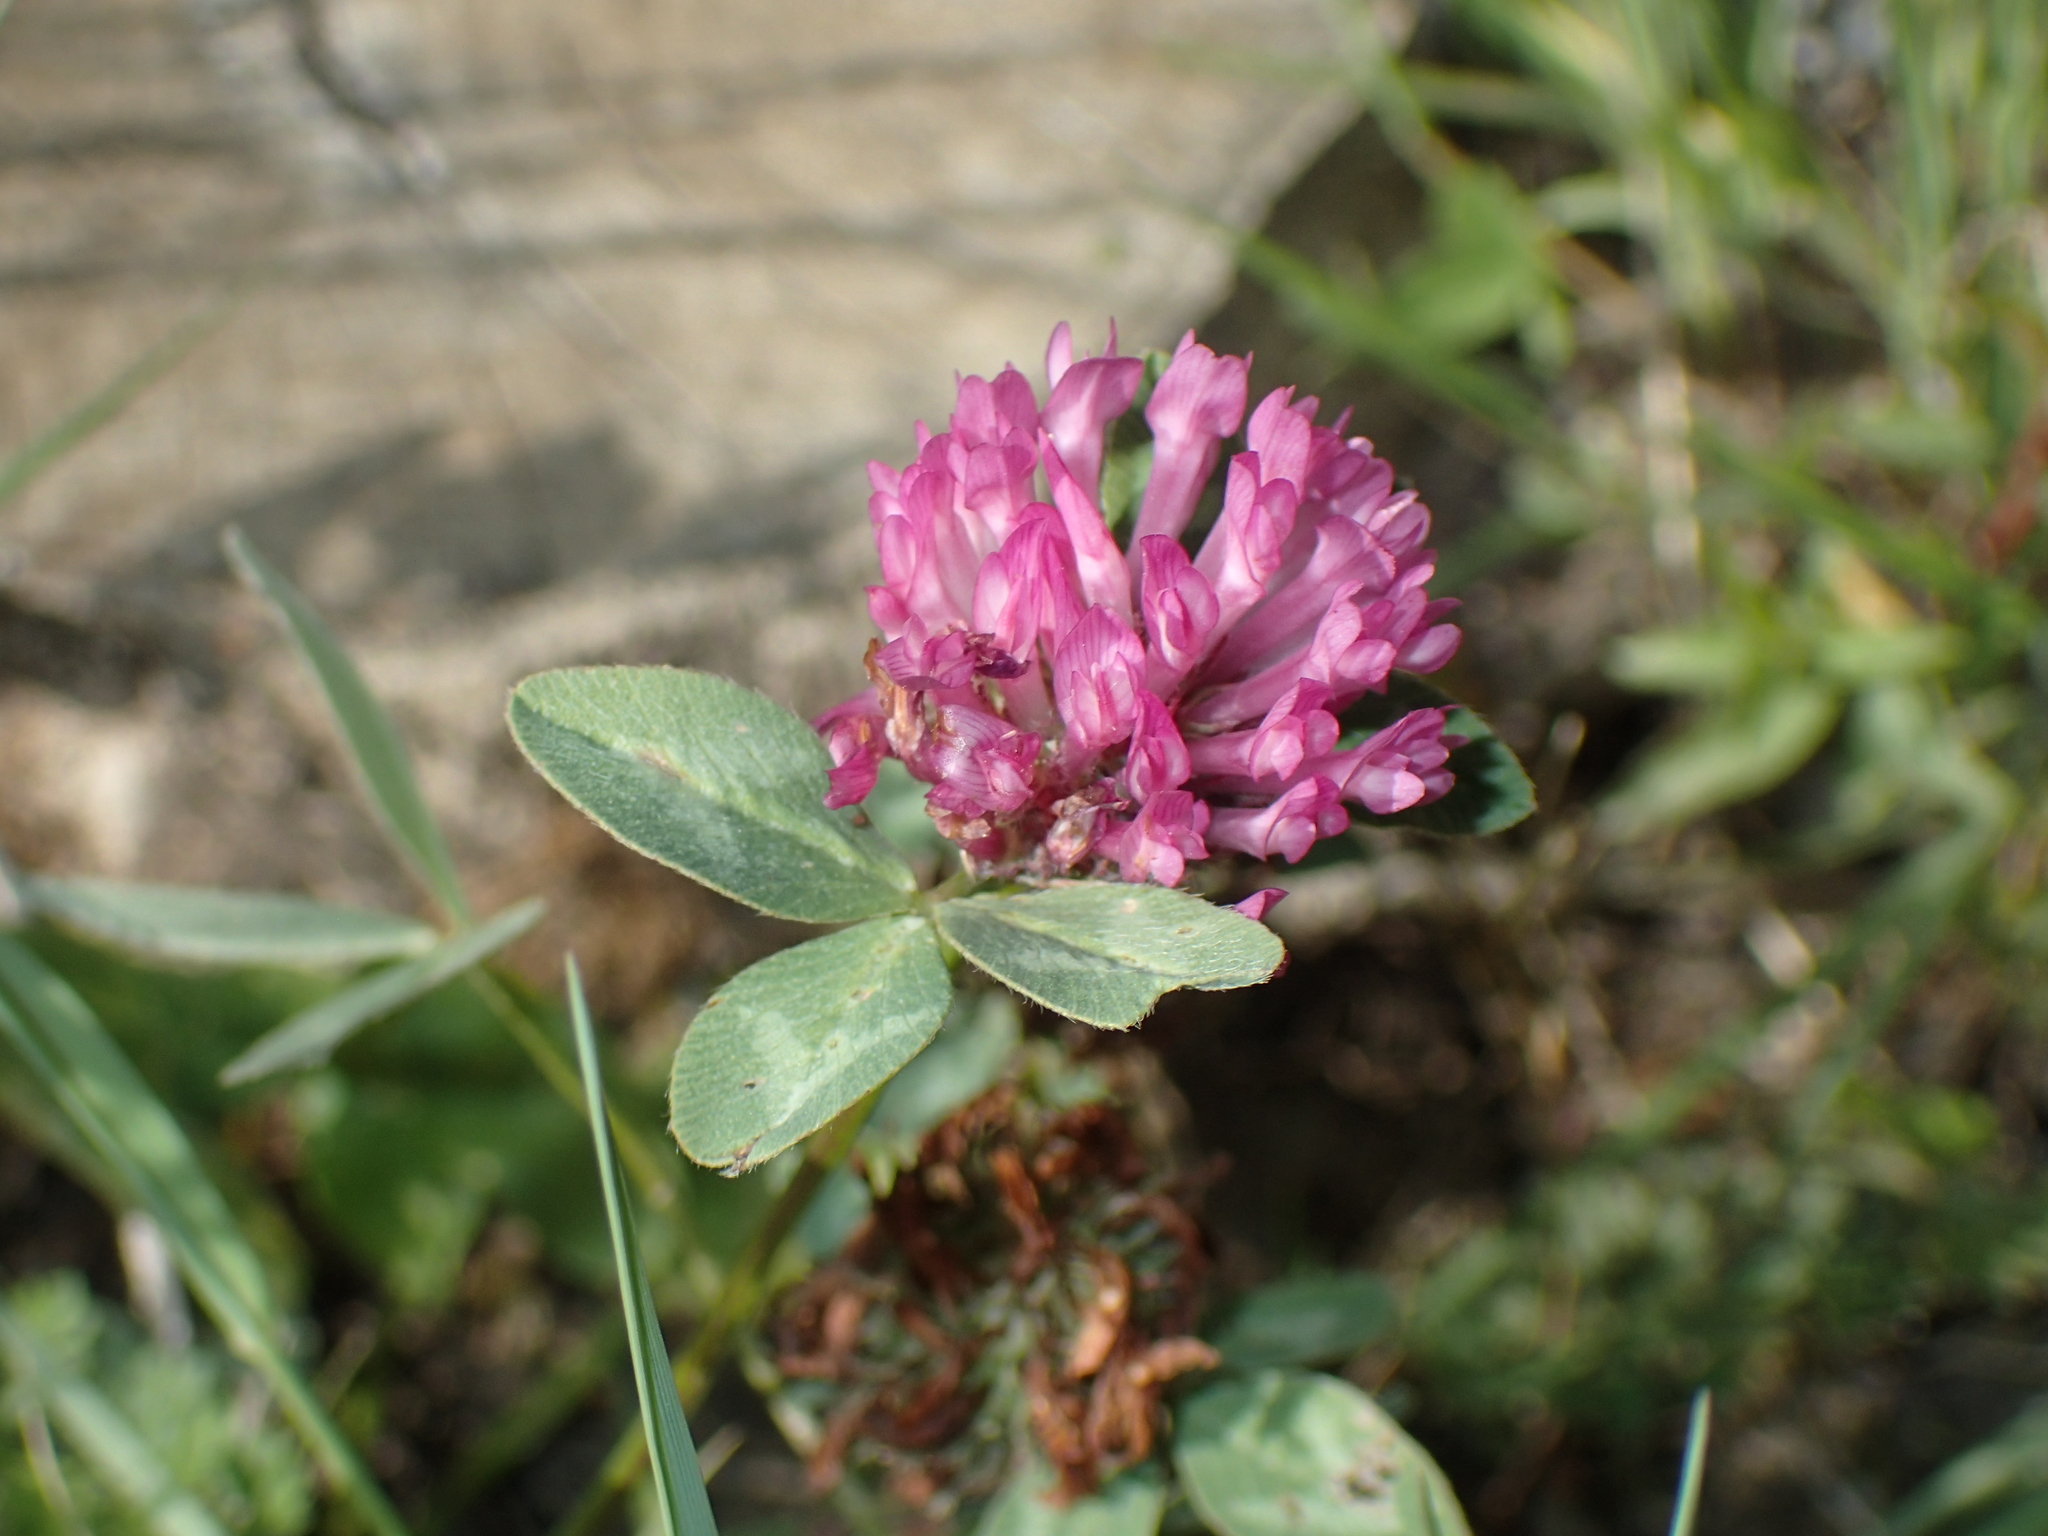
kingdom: Plantae
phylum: Tracheophyta
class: Magnoliopsida
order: Fabales
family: Fabaceae
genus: Trifolium
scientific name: Trifolium pratense
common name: Red clover
